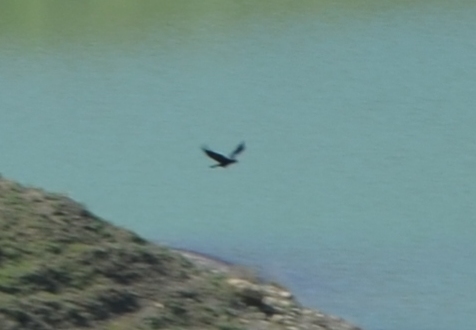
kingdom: Animalia
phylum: Chordata
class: Aves
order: Passeriformes
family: Corvidae
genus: Corvus
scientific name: Corvus corax
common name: Common raven
